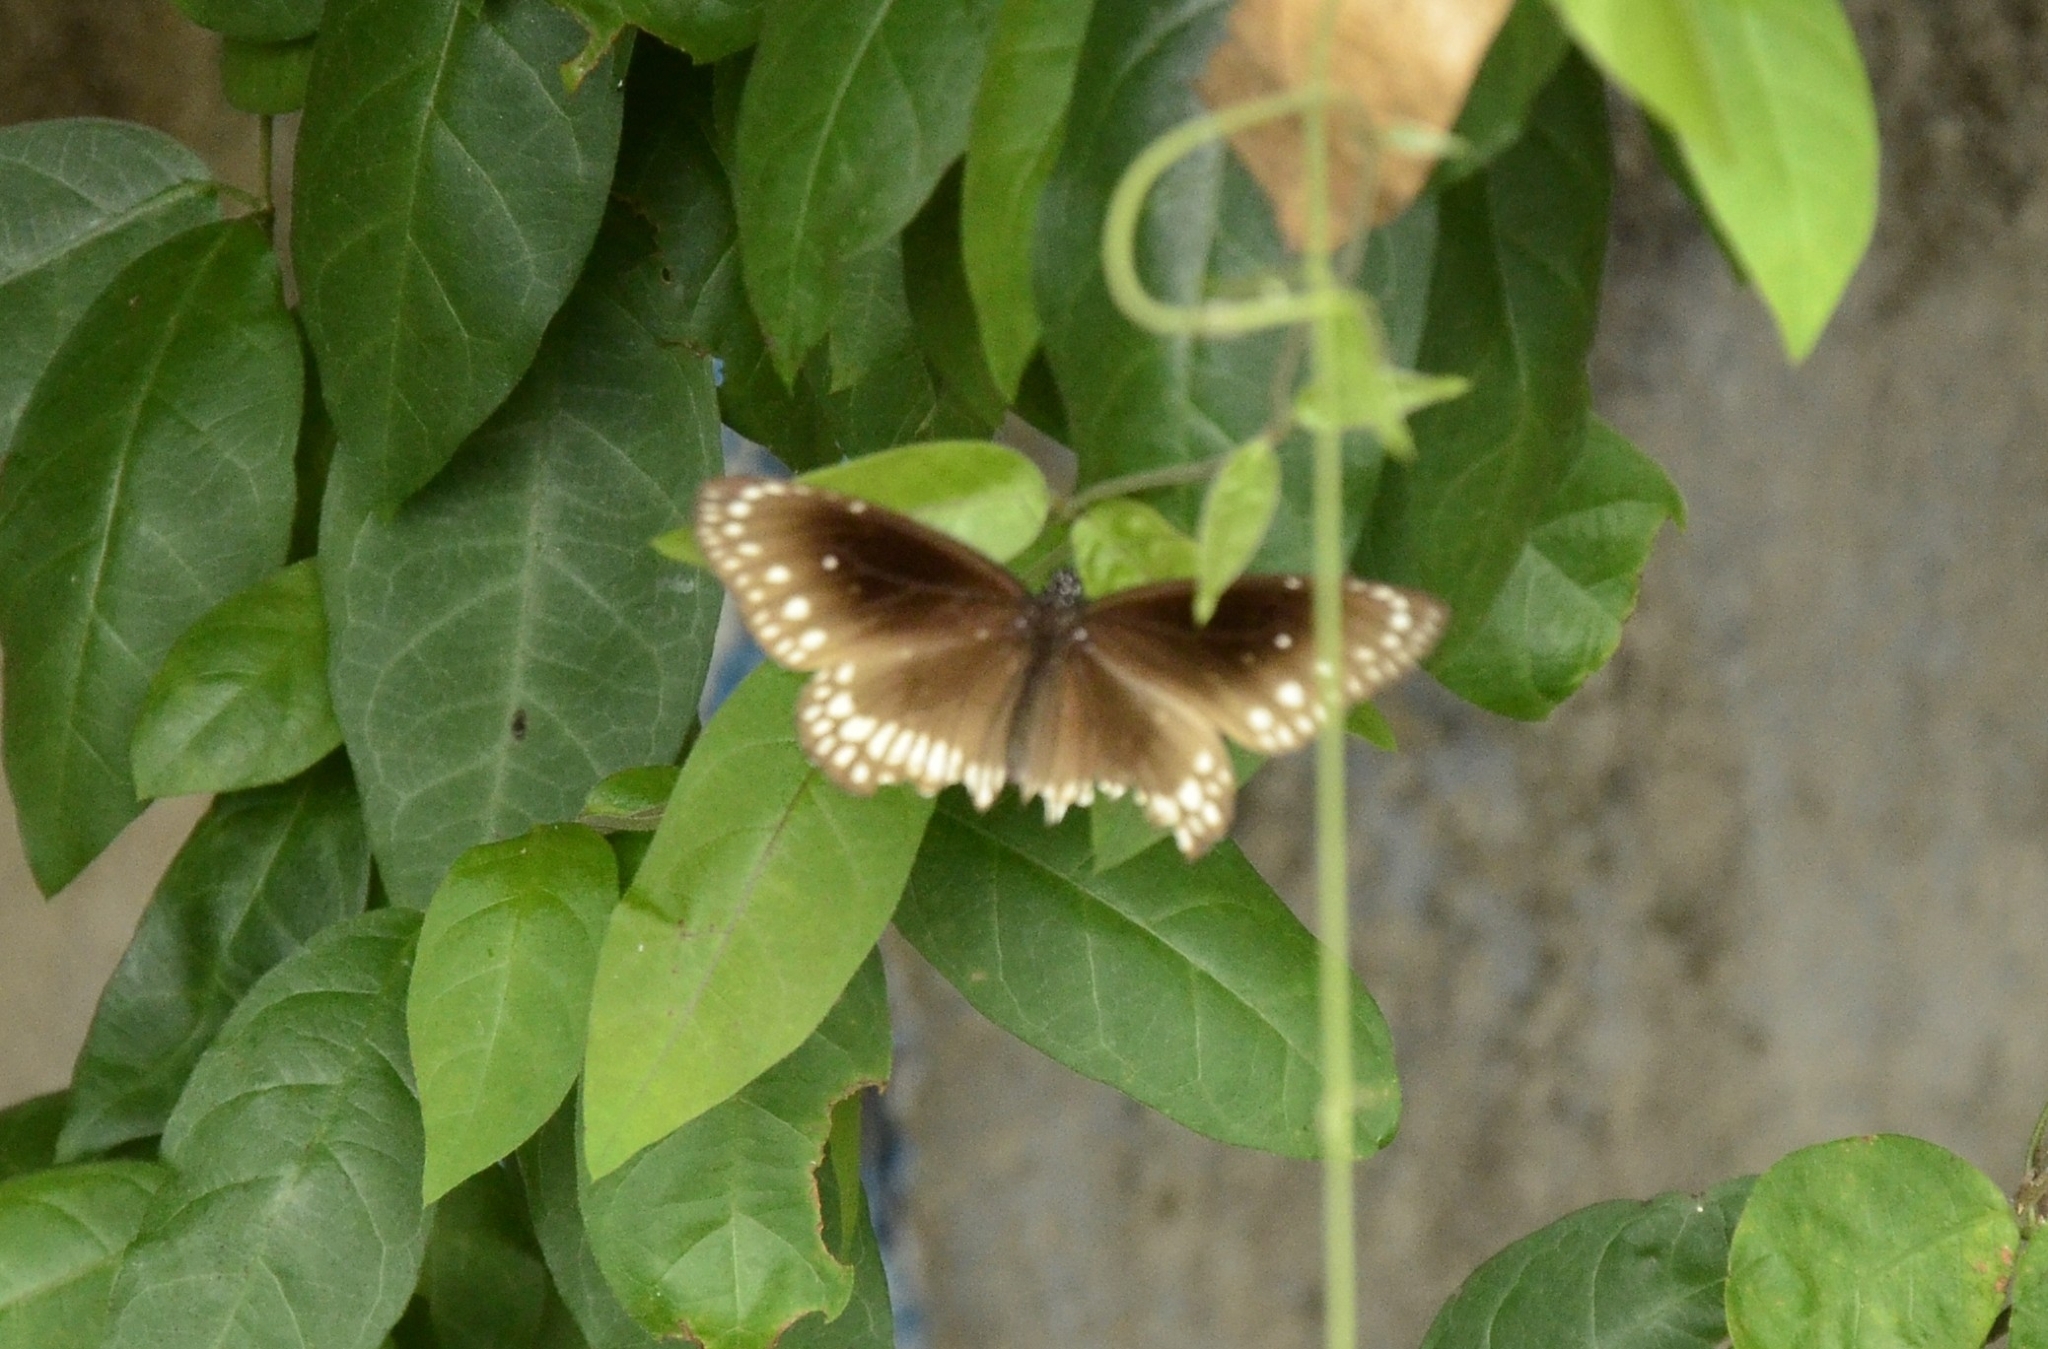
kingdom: Animalia
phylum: Arthropoda
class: Insecta
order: Lepidoptera
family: Nymphalidae
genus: Euploea
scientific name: Euploea core
